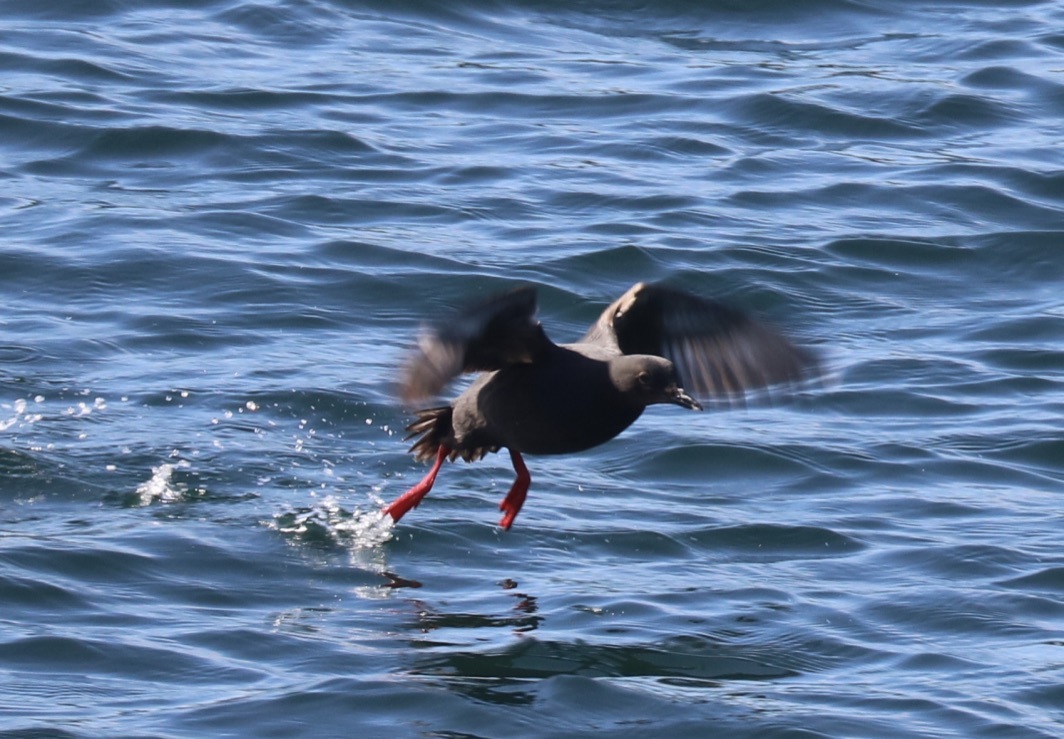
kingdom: Animalia
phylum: Chordata
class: Aves
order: Charadriiformes
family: Alcidae
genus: Cepphus
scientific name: Cepphus columba
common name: Pigeon guillemot
